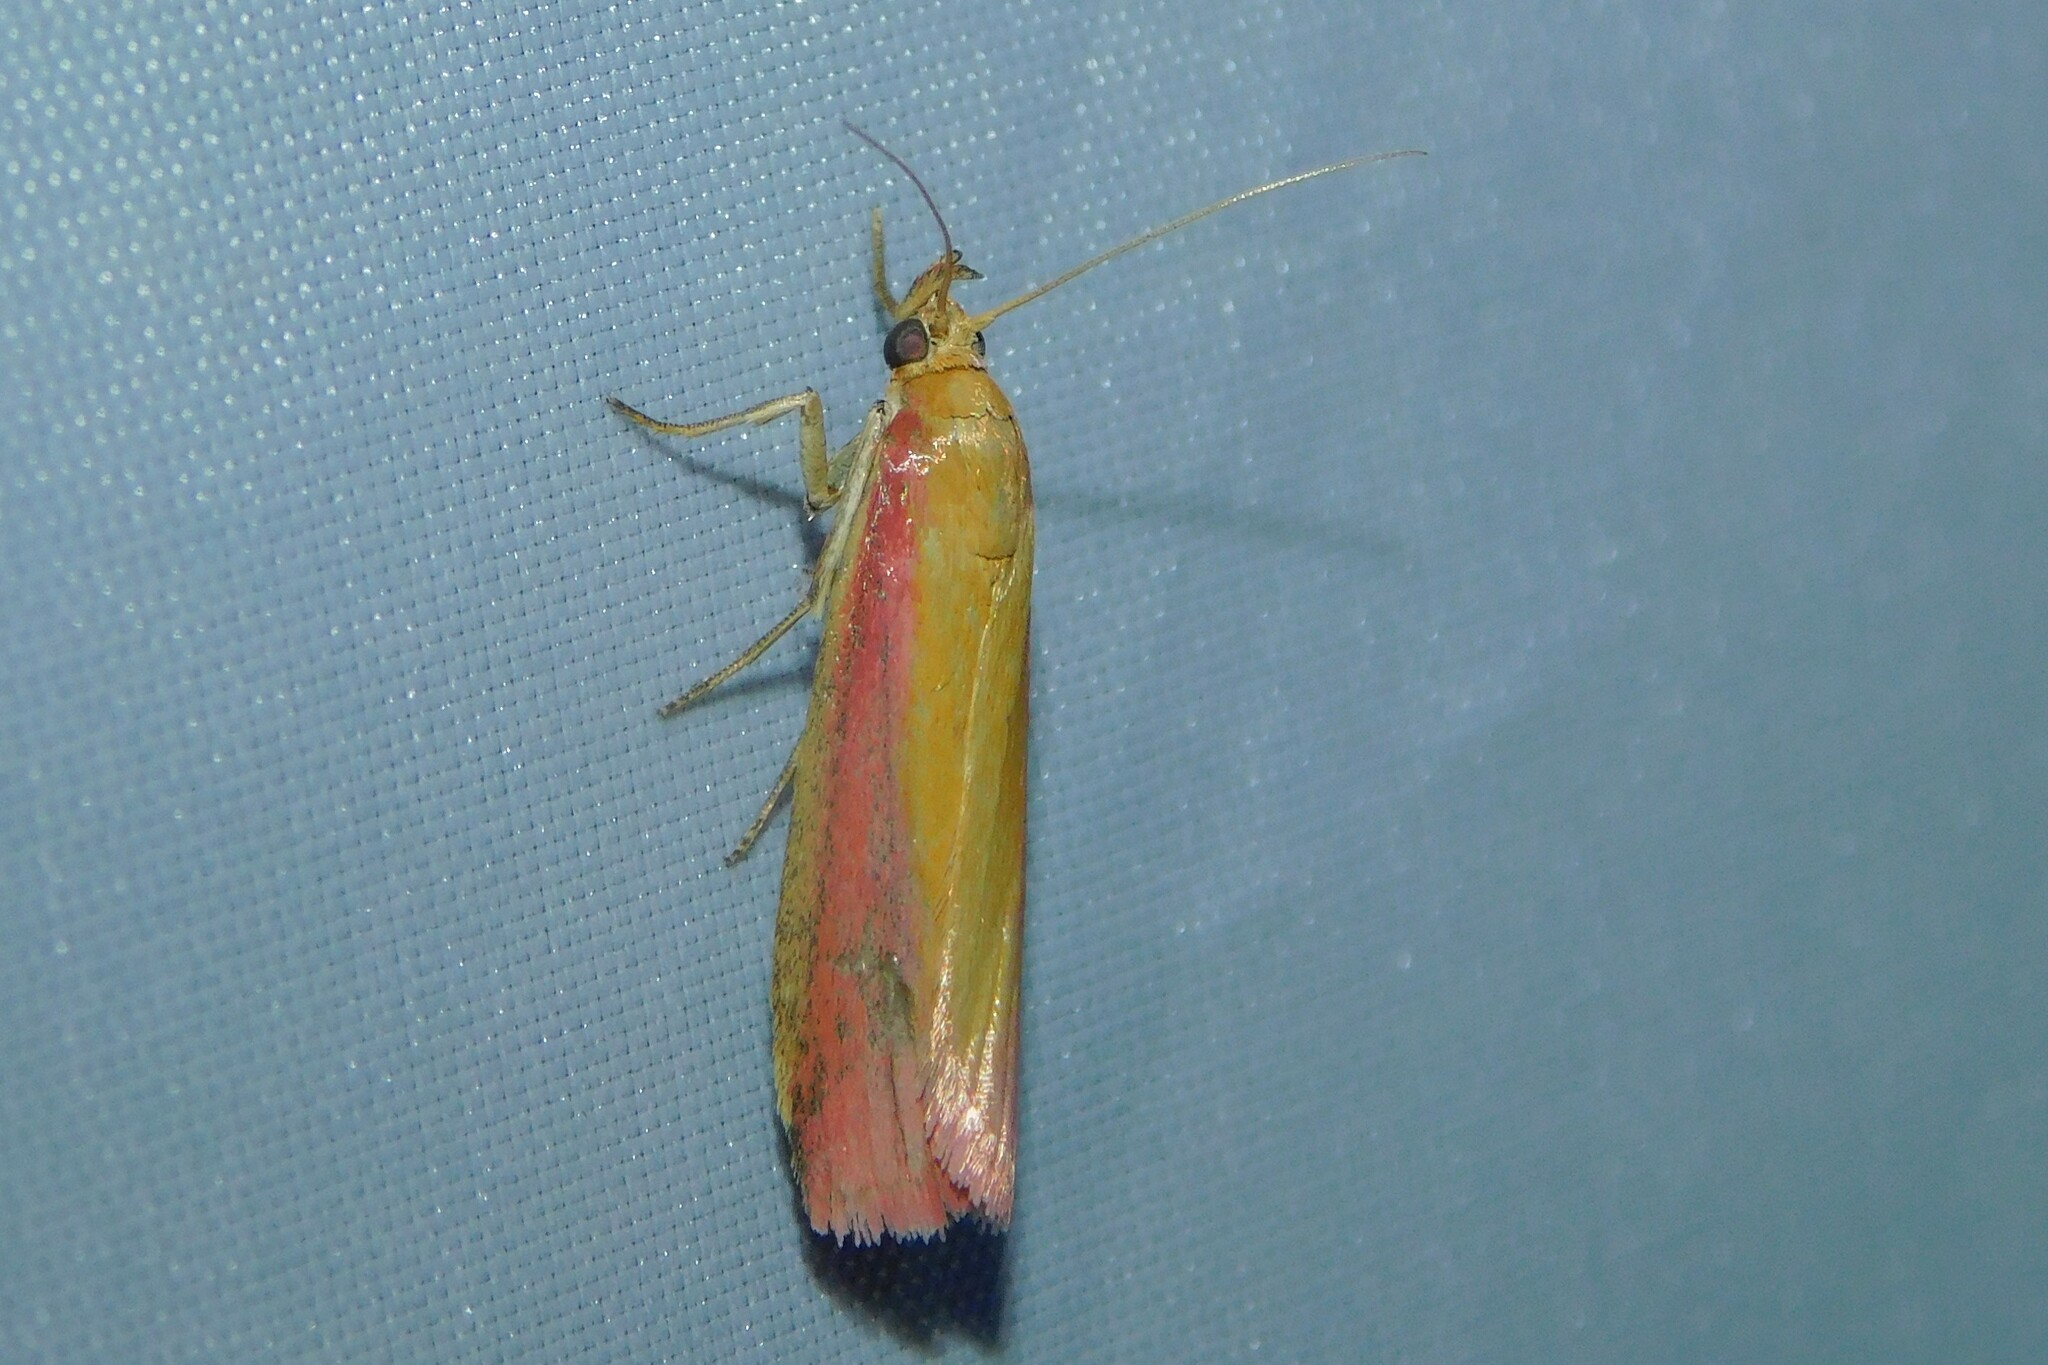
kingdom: Animalia
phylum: Arthropoda
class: Insecta
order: Lepidoptera
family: Pyralidae
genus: Oncocera
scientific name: Oncocera semirubella
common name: Rosy-striped knot-horn
